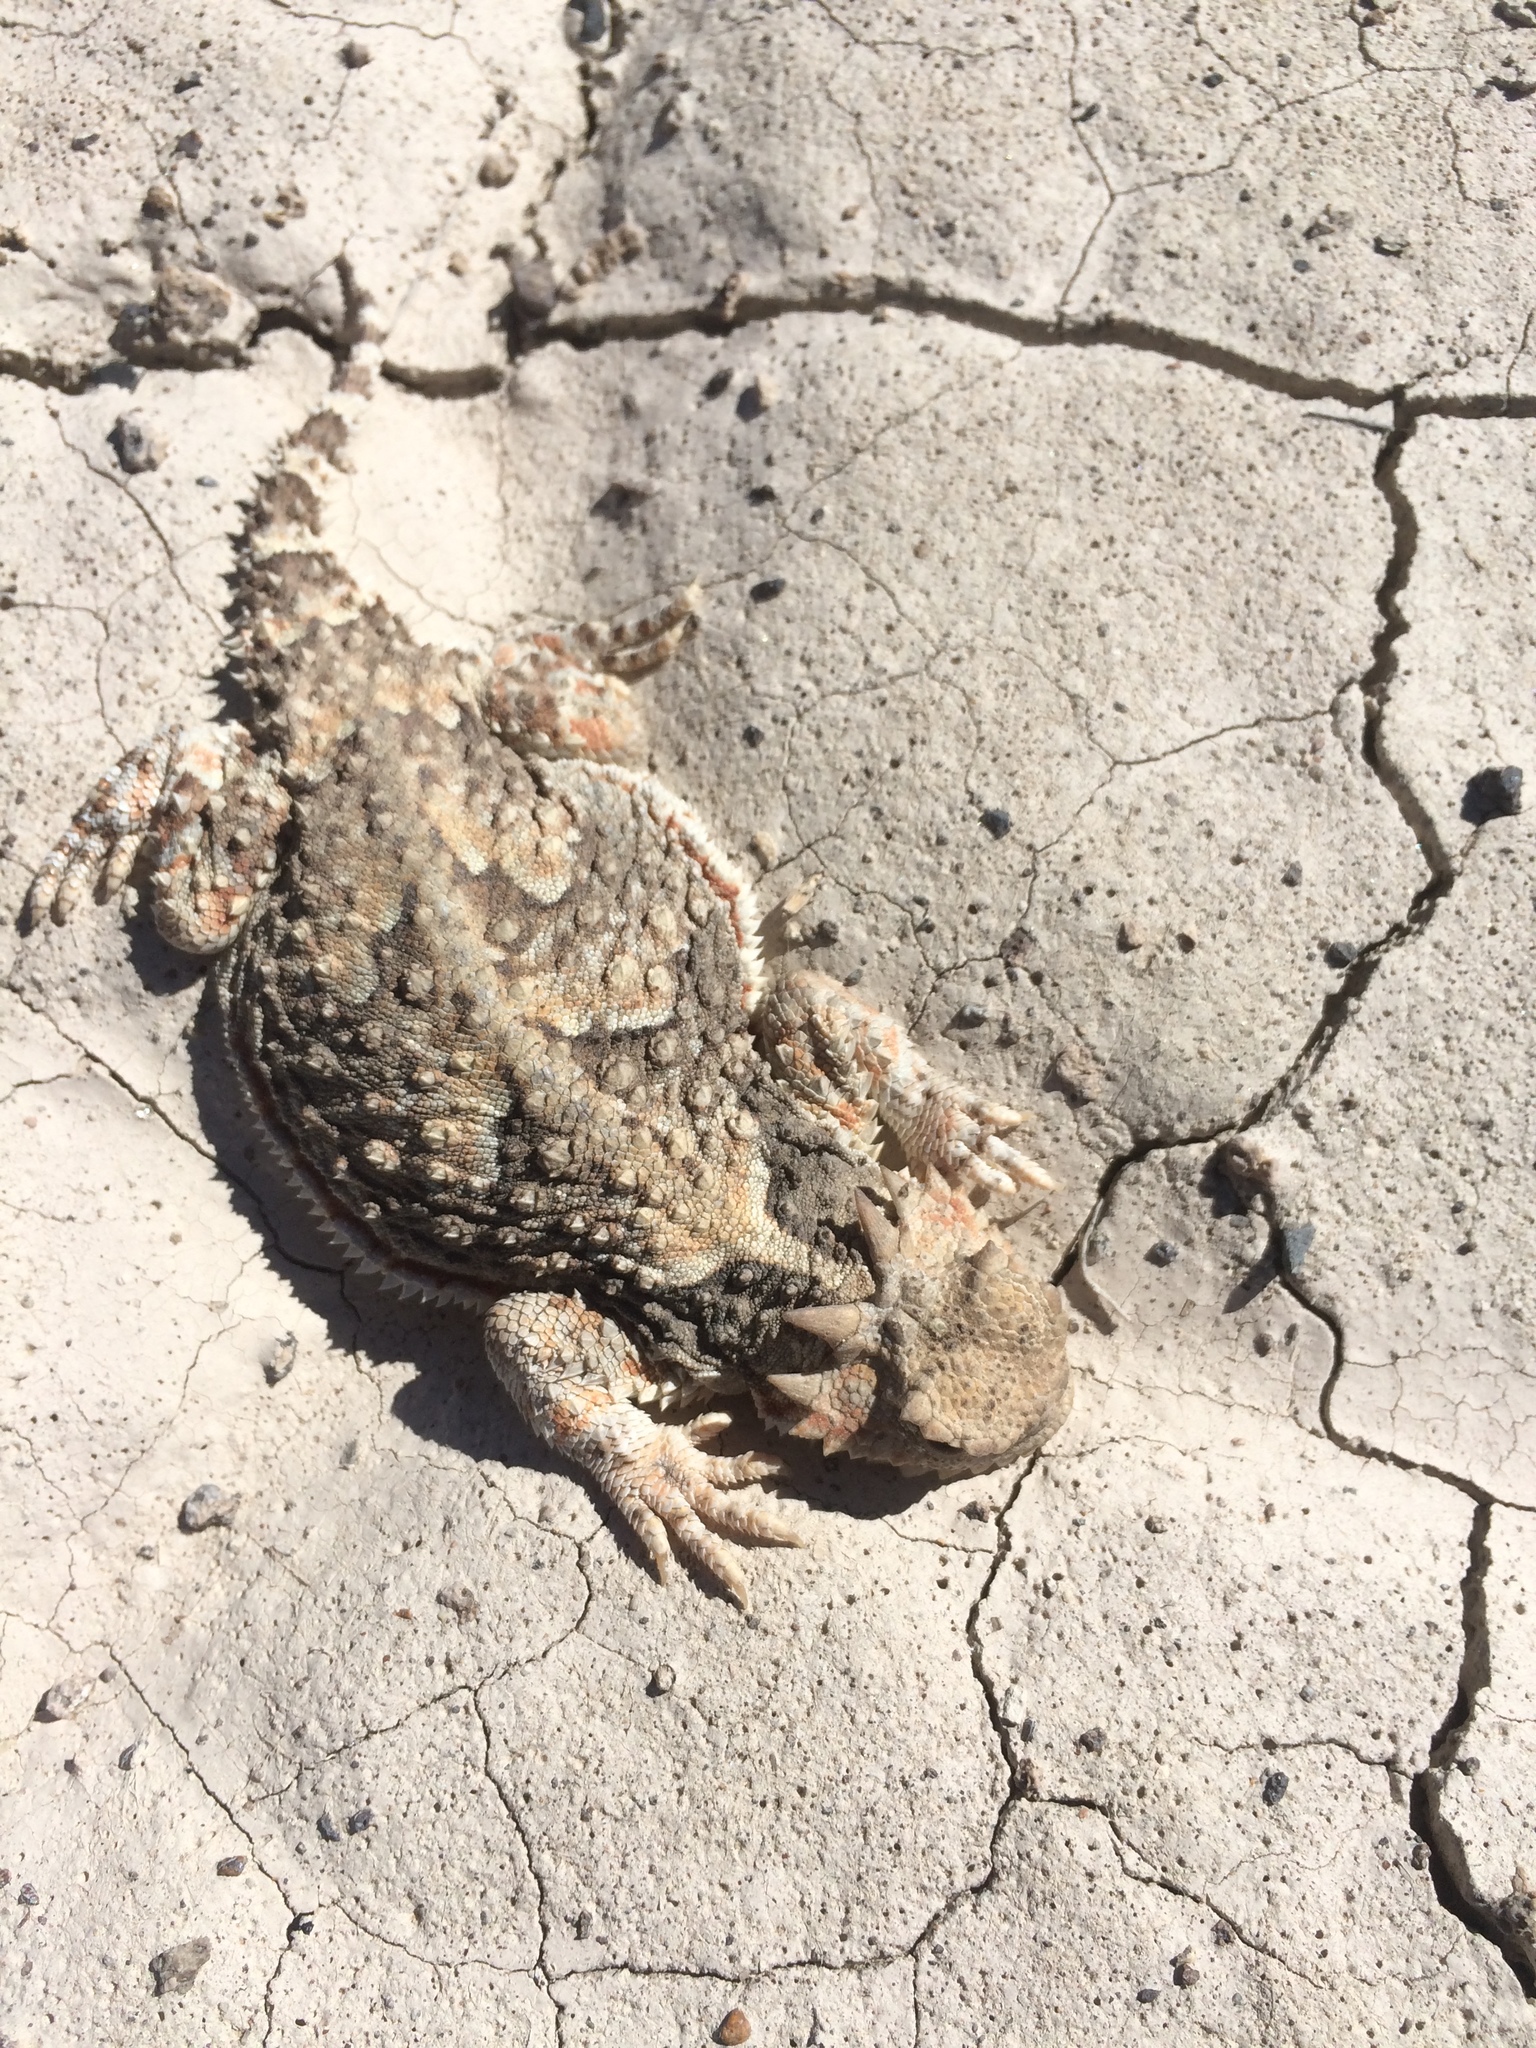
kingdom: Animalia
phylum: Chordata
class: Squamata
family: Phrynosomatidae
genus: Phrynosoma
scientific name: Phrynosoma platyrhinos
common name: Desert horned lizard
